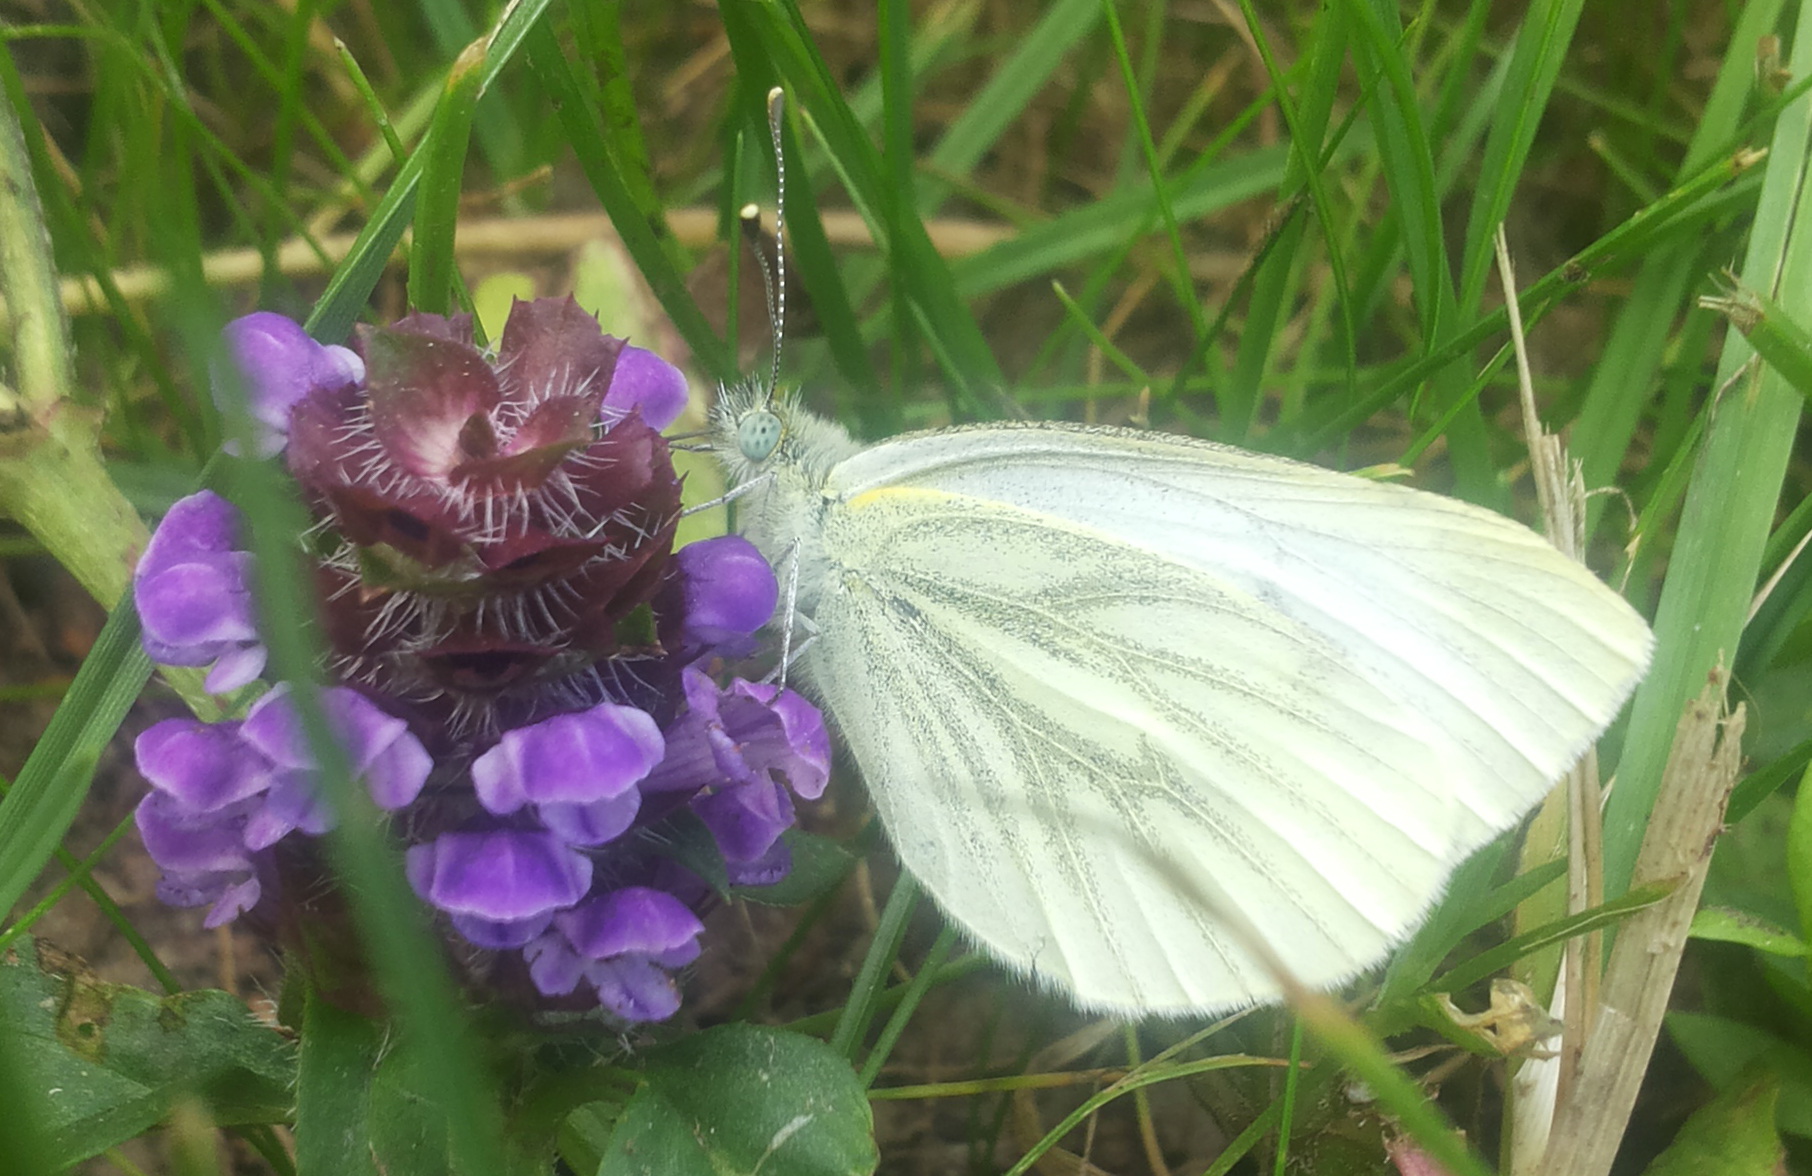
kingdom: Animalia
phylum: Arthropoda
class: Insecta
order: Lepidoptera
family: Pieridae
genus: Pieris
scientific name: Pieris napi
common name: Green-veined white
